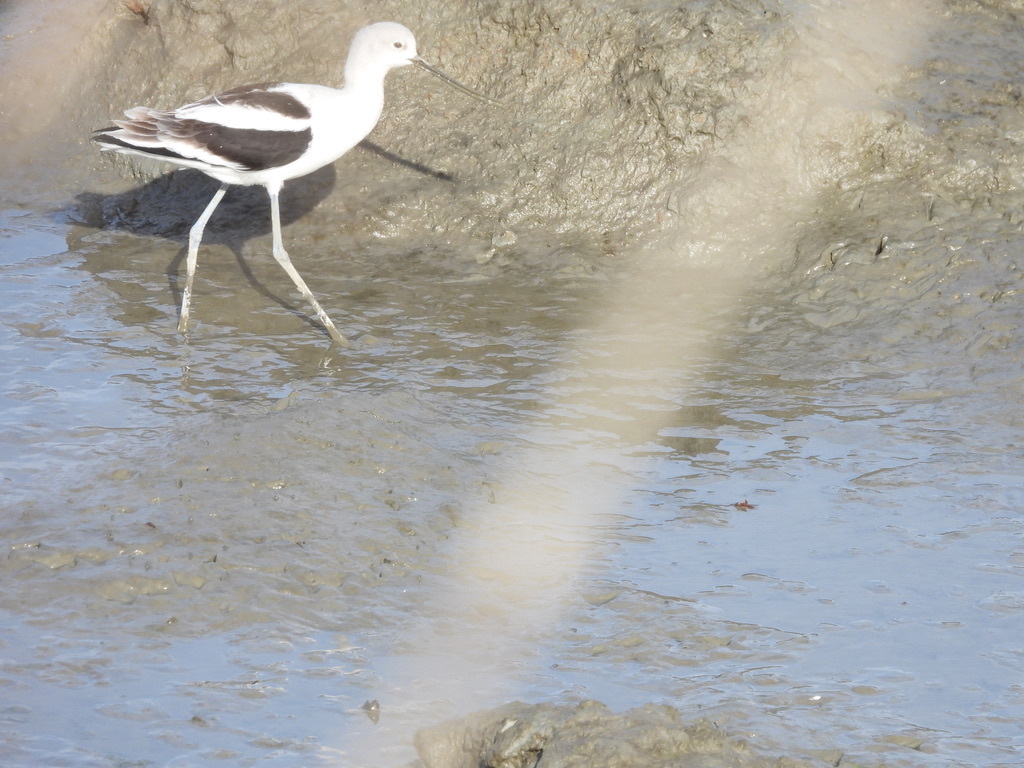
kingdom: Animalia
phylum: Chordata
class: Aves
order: Charadriiformes
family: Recurvirostridae
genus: Recurvirostra
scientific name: Recurvirostra americana
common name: American avocet
